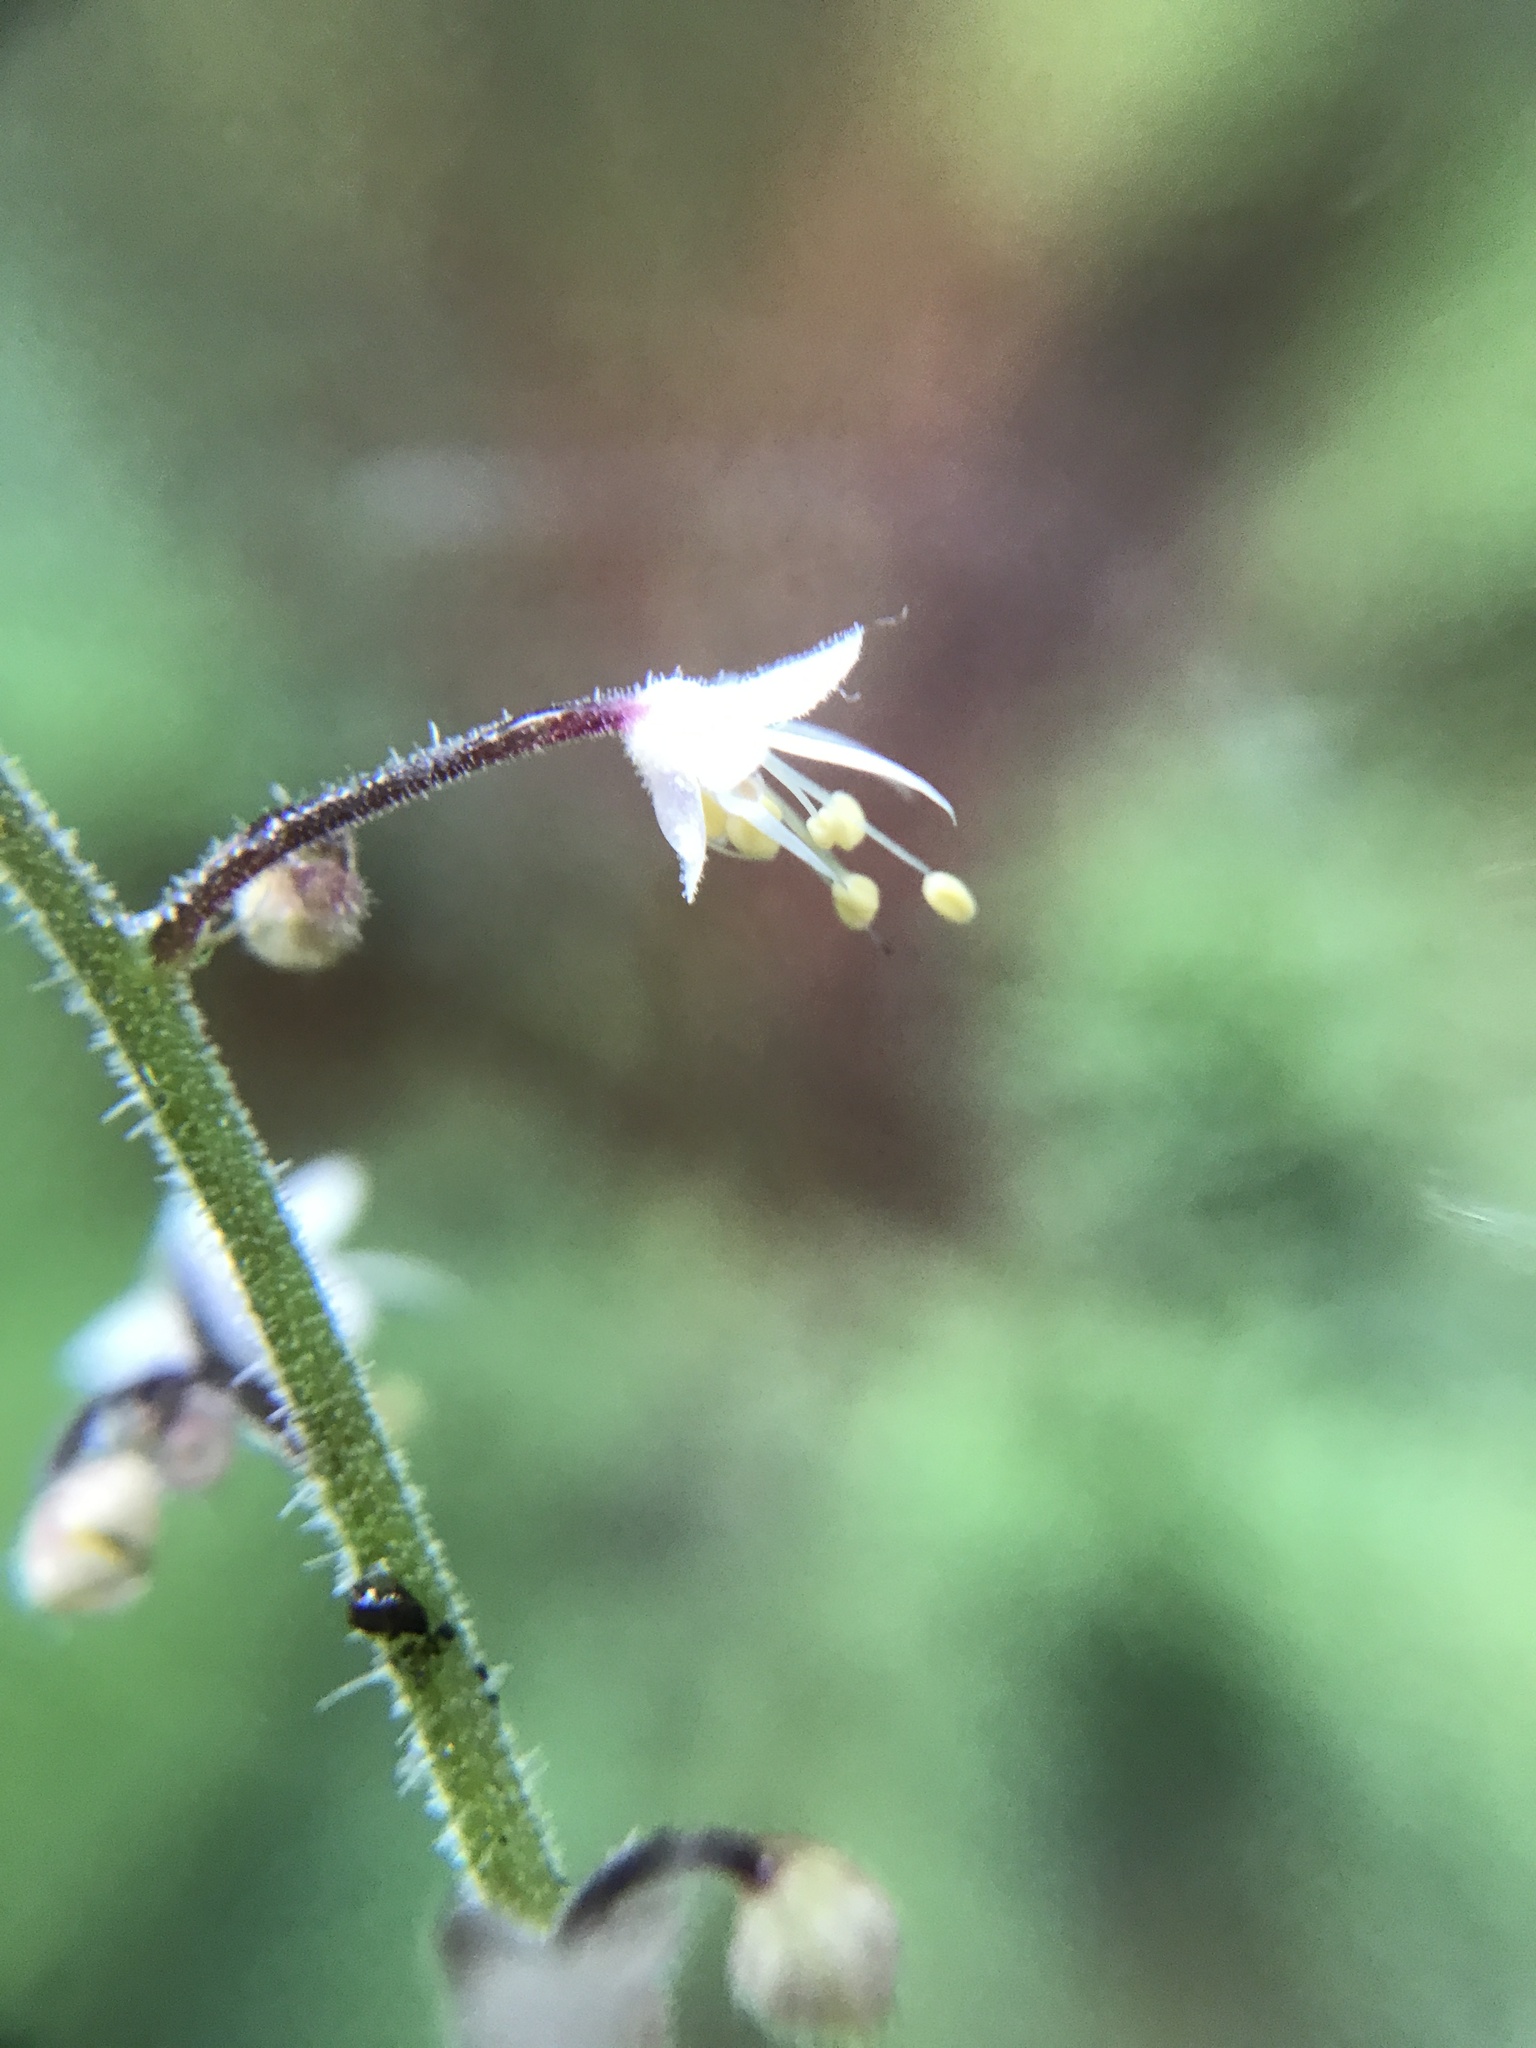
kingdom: Plantae
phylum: Tracheophyta
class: Magnoliopsida
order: Saxifragales
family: Saxifragaceae
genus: Tiarella
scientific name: Tiarella trifoliata
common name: Sugar-scoop
